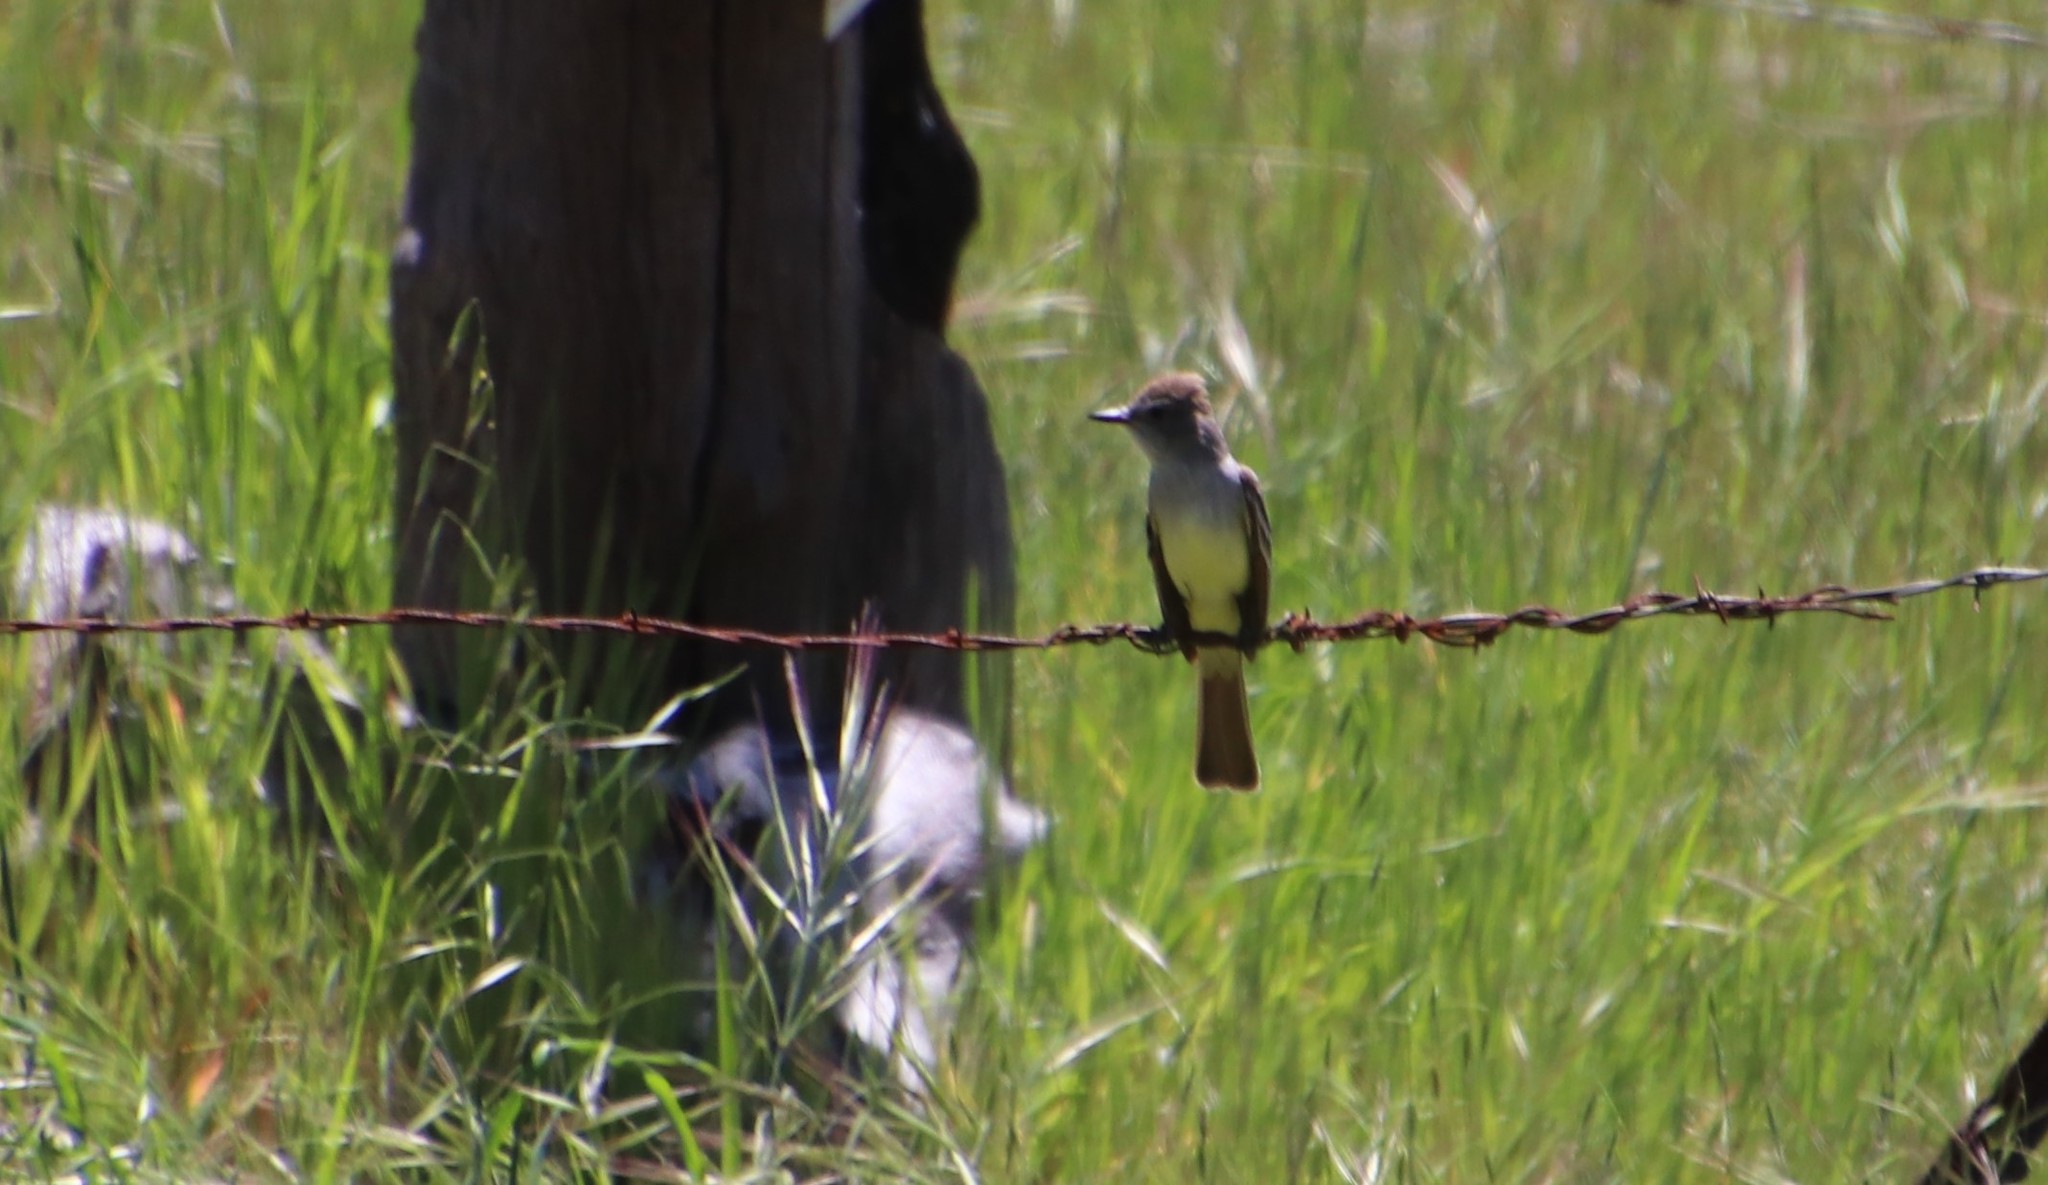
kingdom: Animalia
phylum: Chordata
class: Aves
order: Passeriformes
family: Tyrannidae
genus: Myiarchus
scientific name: Myiarchus cinerascens
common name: Ash-throated flycatcher
